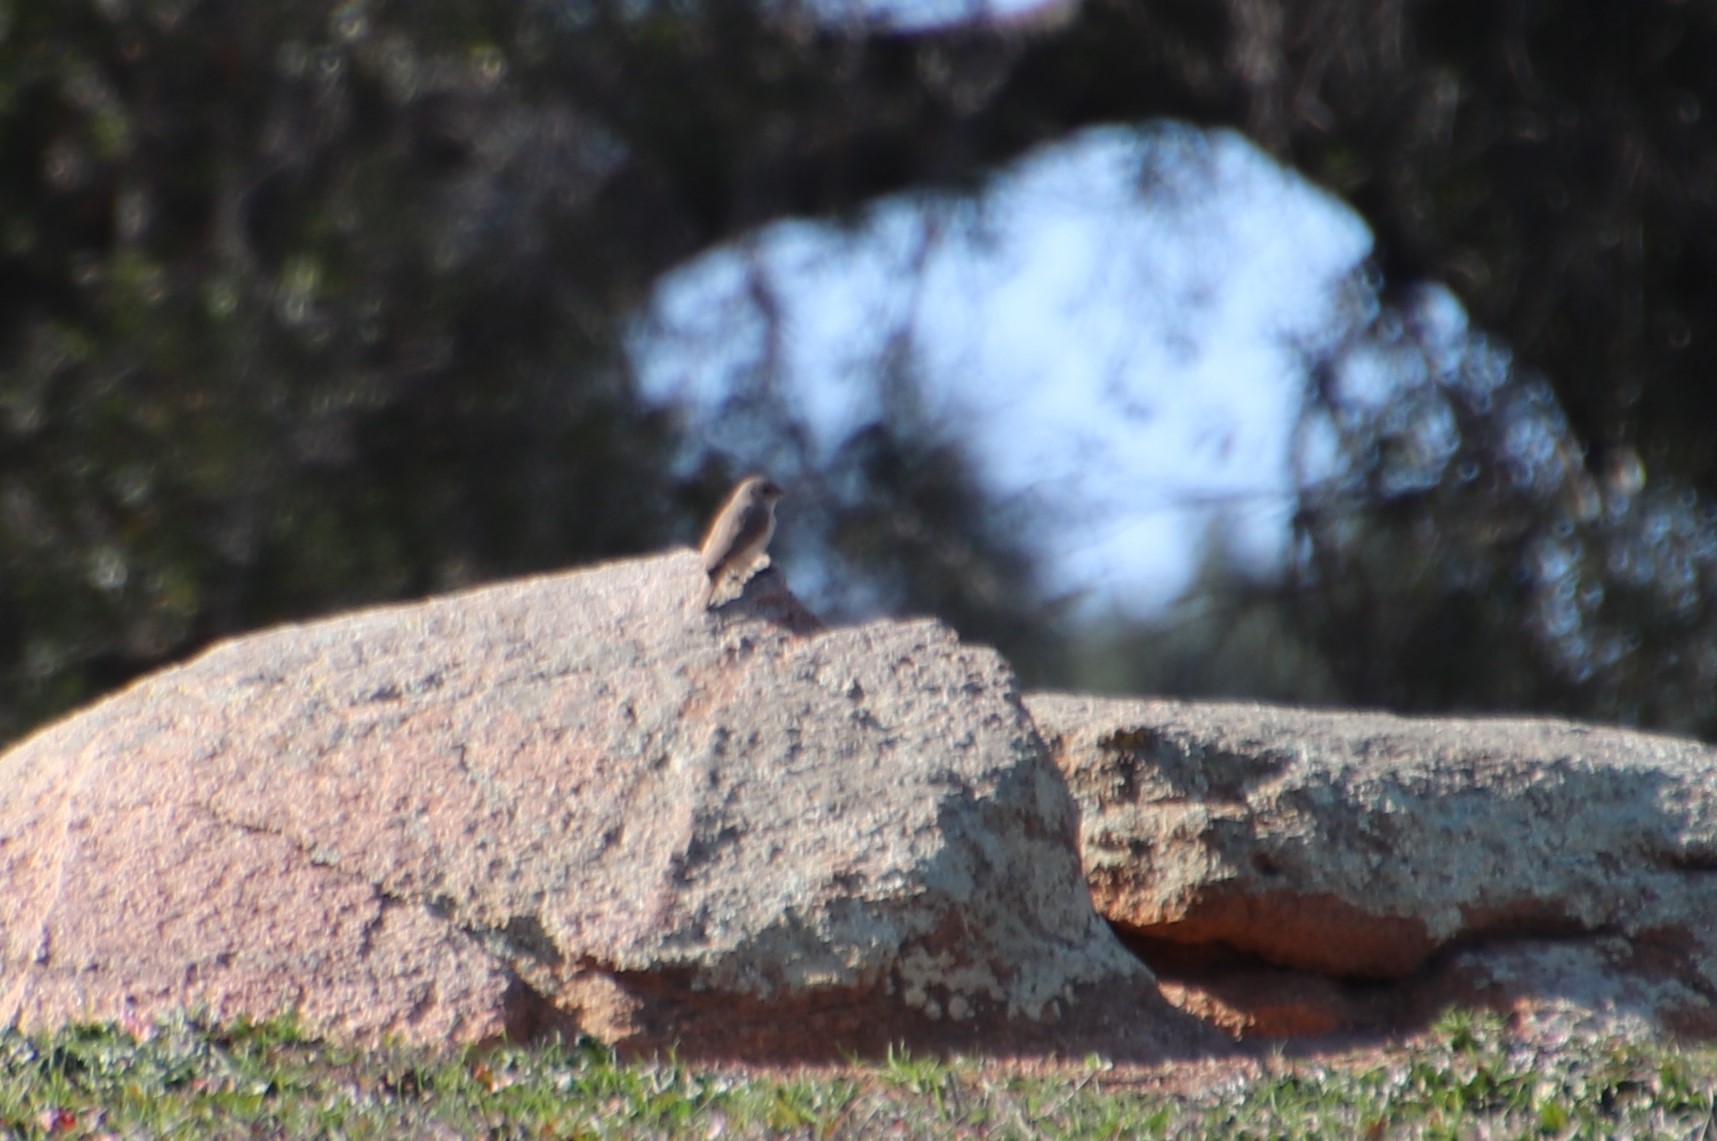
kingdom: Animalia
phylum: Chordata
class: Aves
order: Passeriformes
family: Troglodytidae
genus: Salpinctes
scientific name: Salpinctes obsoletus
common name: Rock wren
